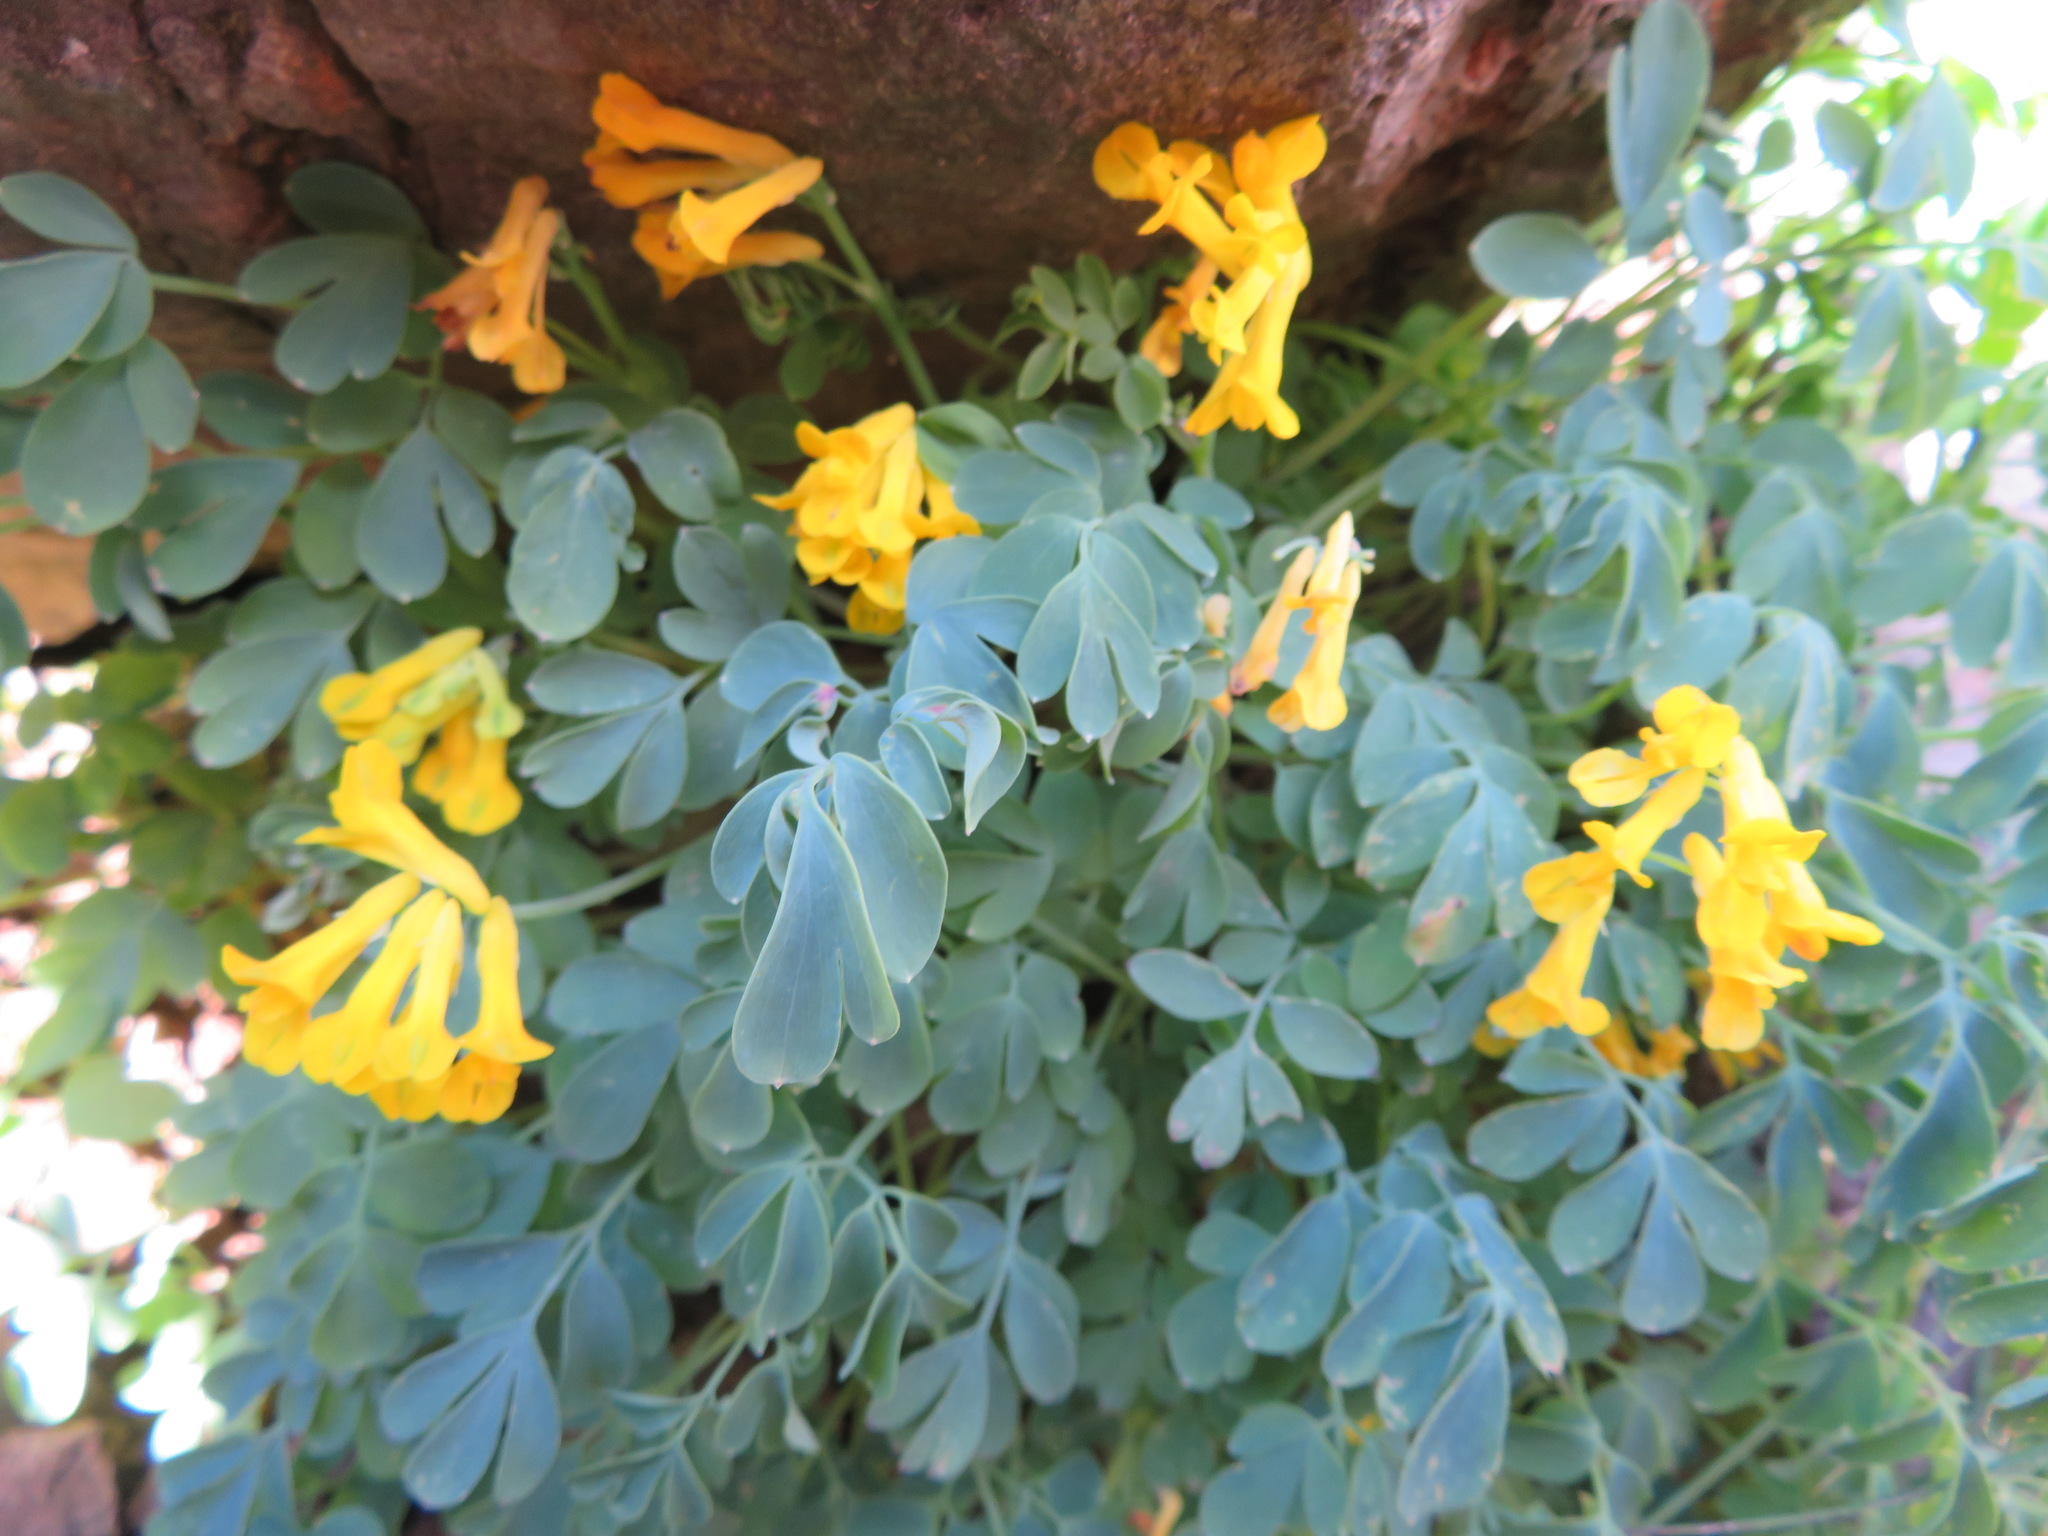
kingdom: Plantae
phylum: Tracheophyta
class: Magnoliopsida
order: Ranunculales
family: Papaveraceae
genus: Pseudofumaria
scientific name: Pseudofumaria lutea
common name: Yellow corydalis
